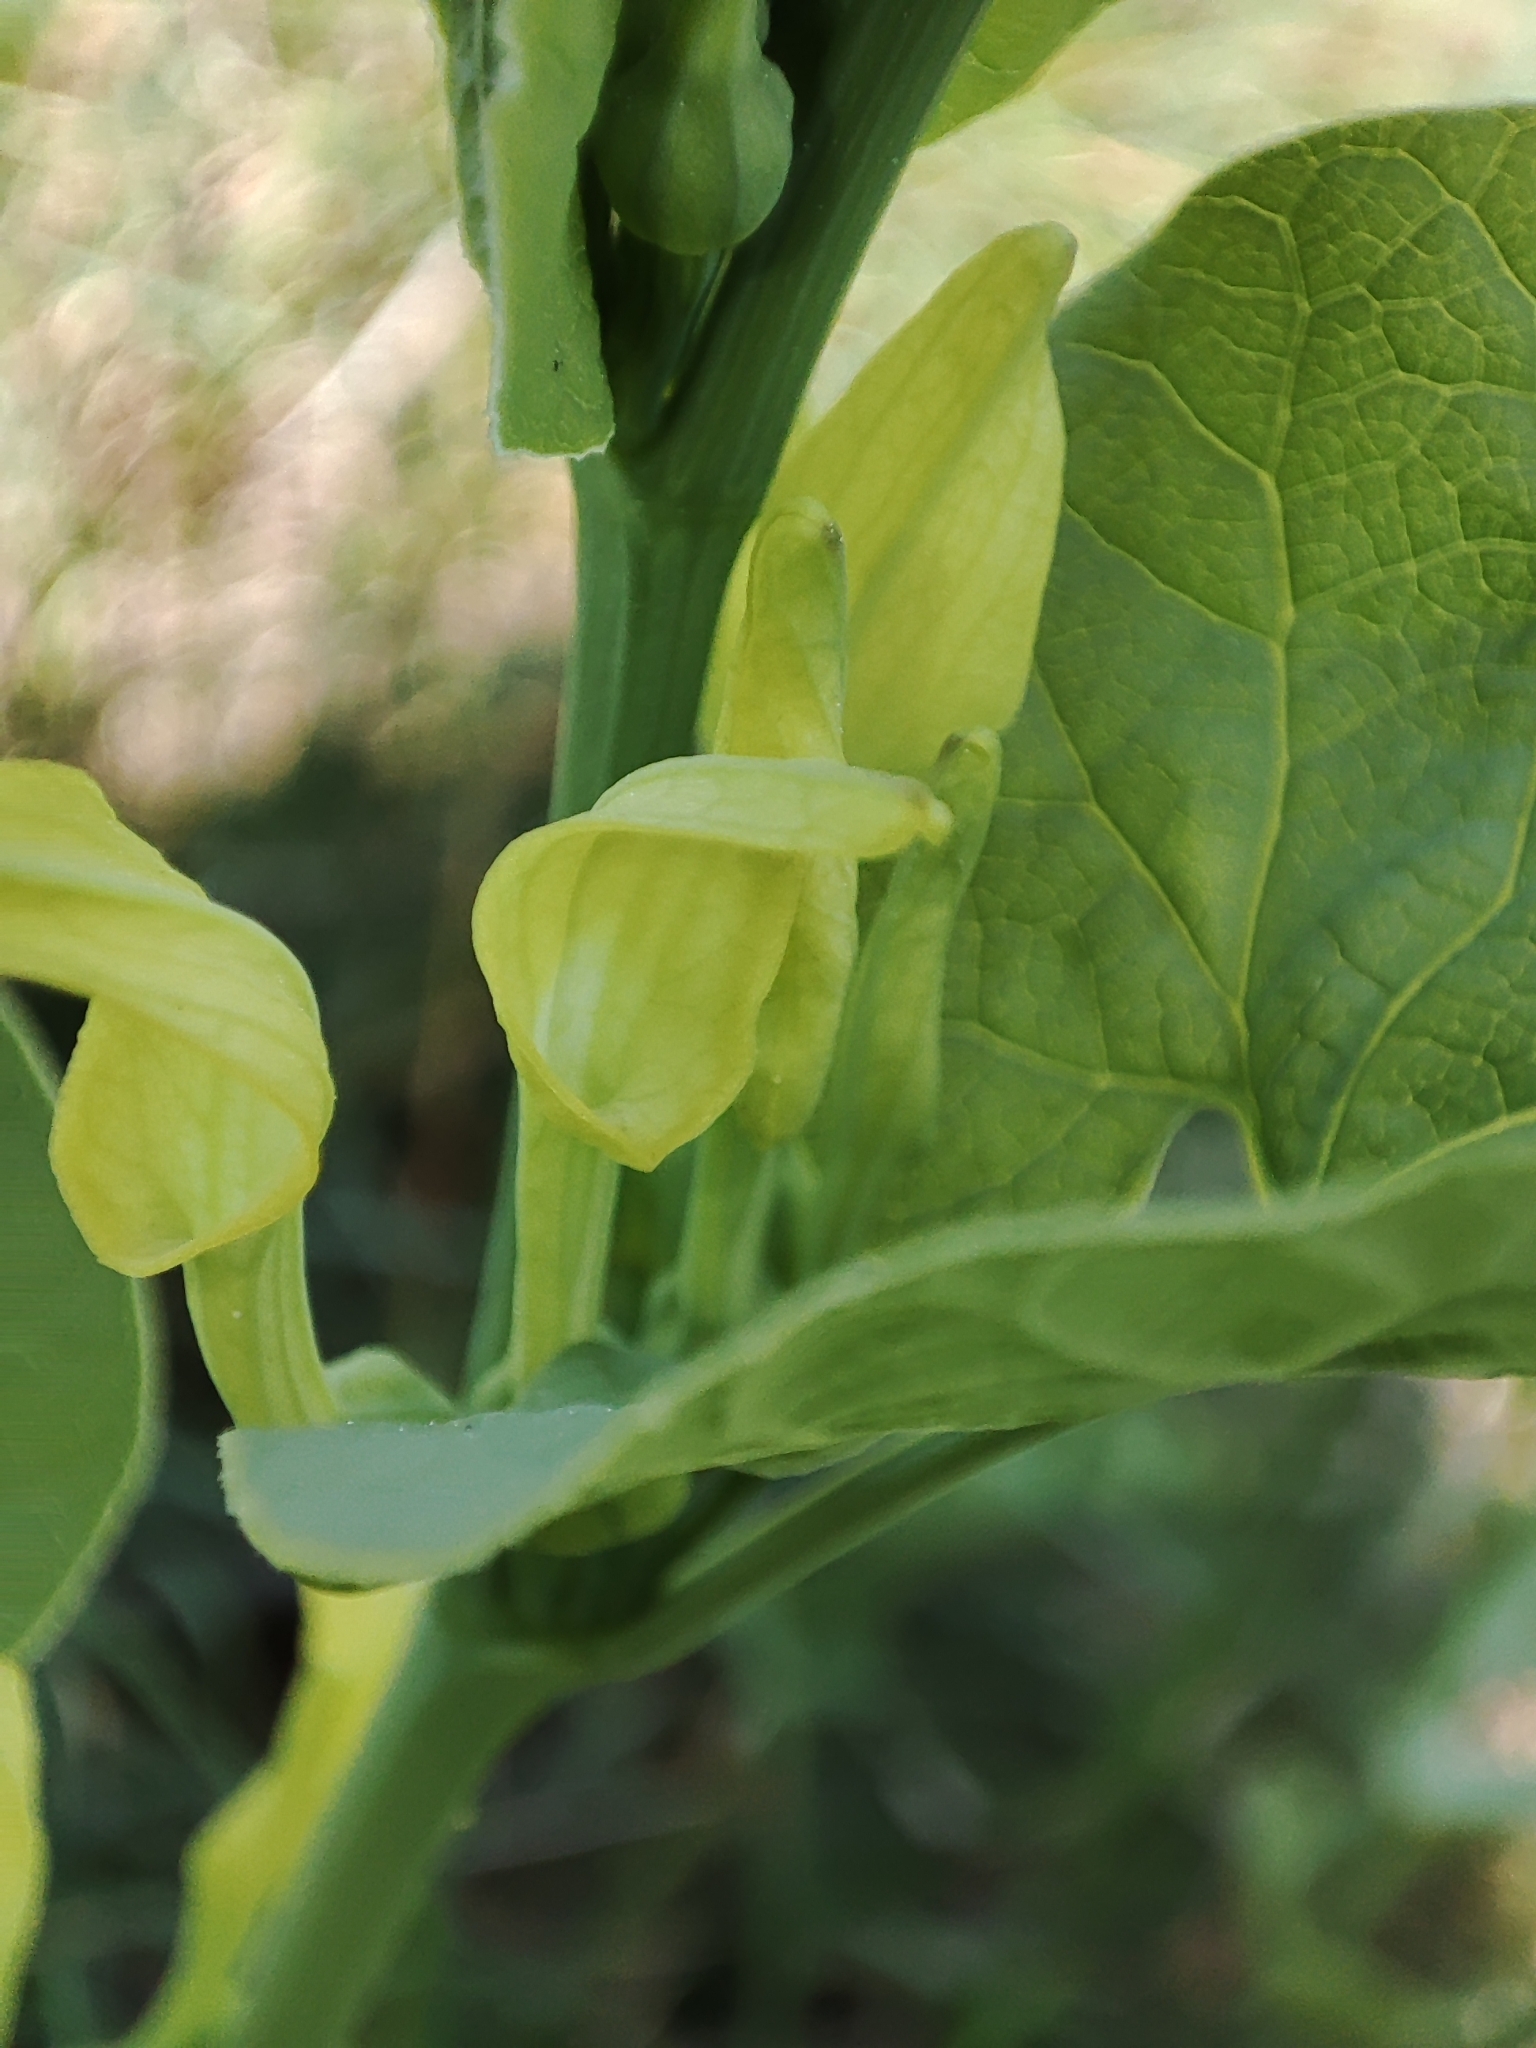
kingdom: Plantae
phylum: Tracheophyta
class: Magnoliopsida
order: Piperales
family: Aristolochiaceae
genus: Aristolochia
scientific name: Aristolochia clematitis
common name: Birthwort
